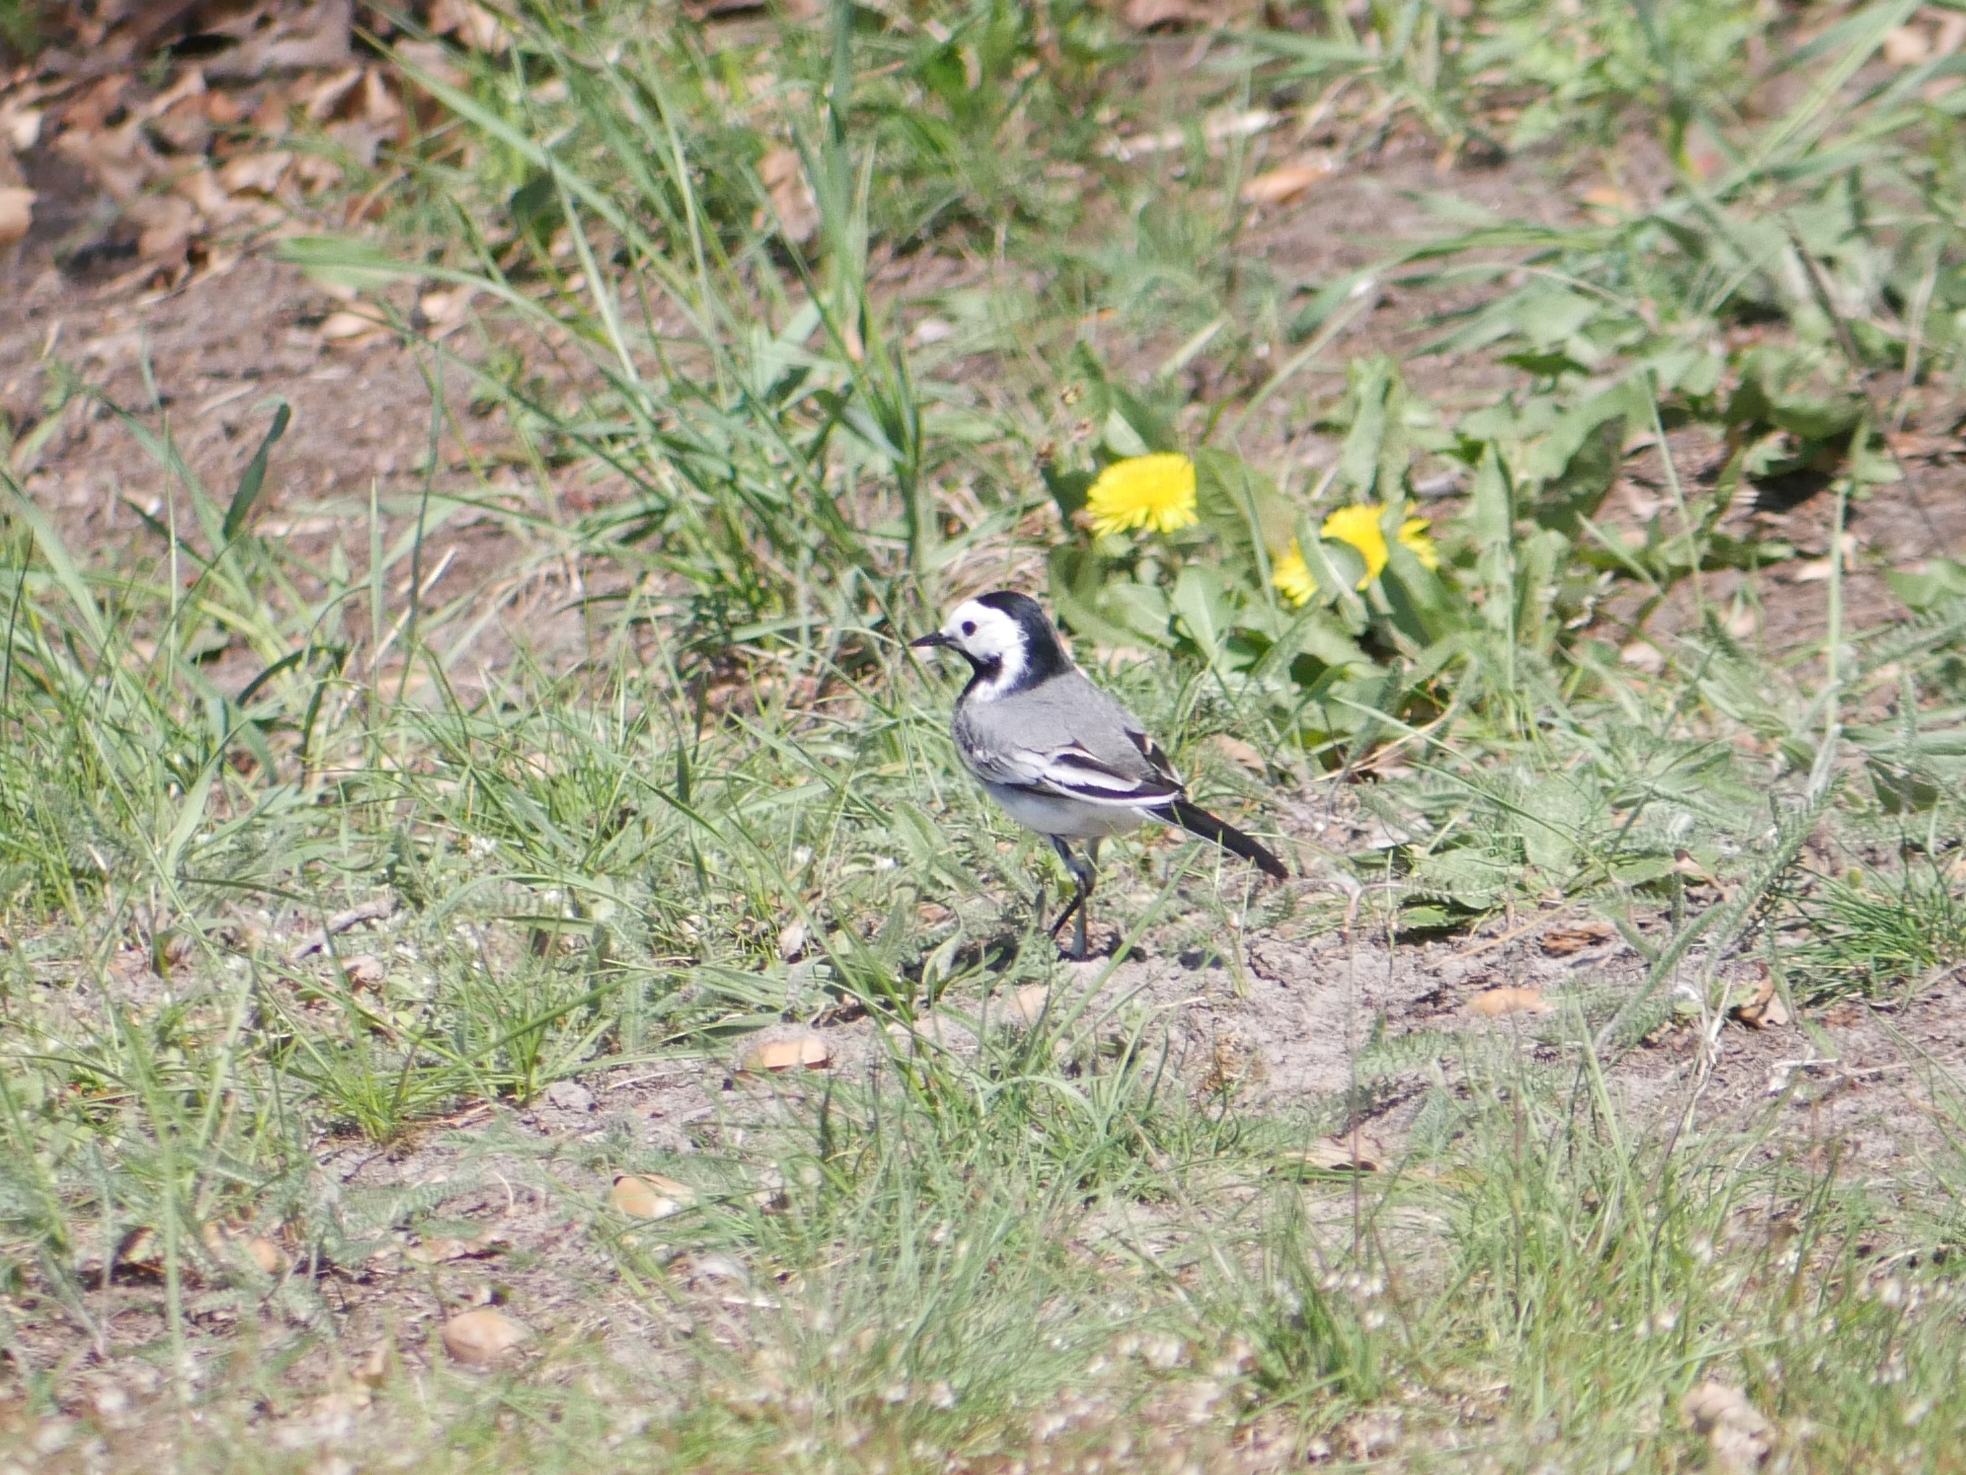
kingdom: Animalia
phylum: Chordata
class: Aves
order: Passeriformes
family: Motacillidae
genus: Motacilla
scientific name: Motacilla alba
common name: White wagtail
